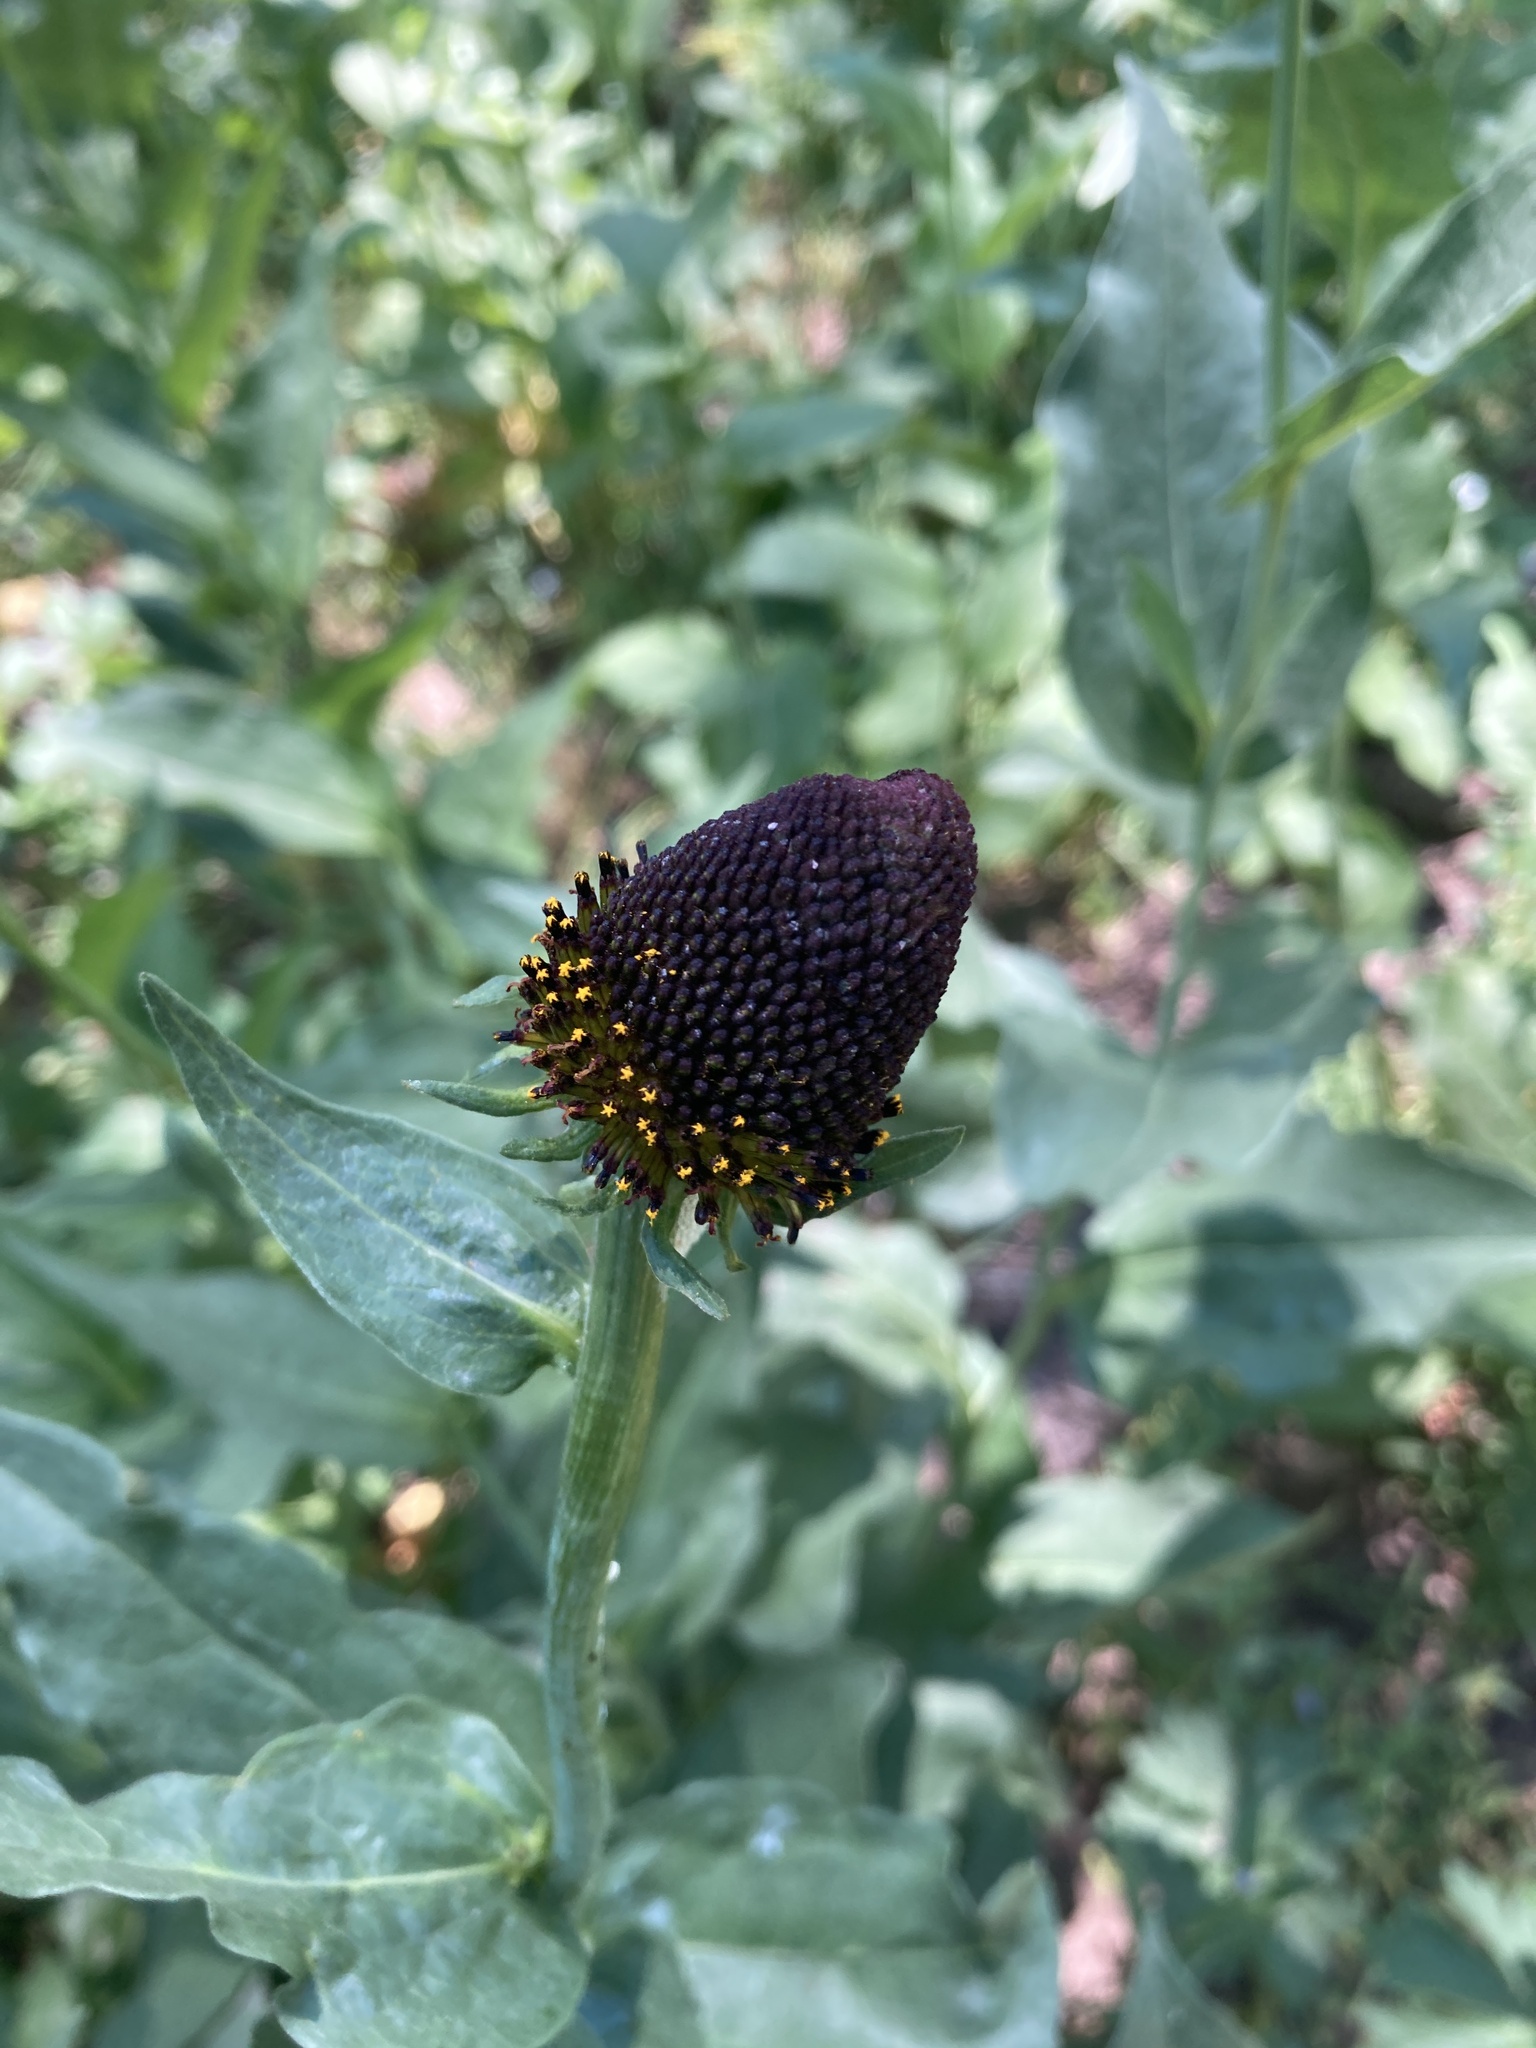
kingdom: Plantae
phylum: Tracheophyta
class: Magnoliopsida
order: Asterales
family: Asteraceae
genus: Rudbeckia
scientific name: Rudbeckia occidentalis
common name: Western coneflower
